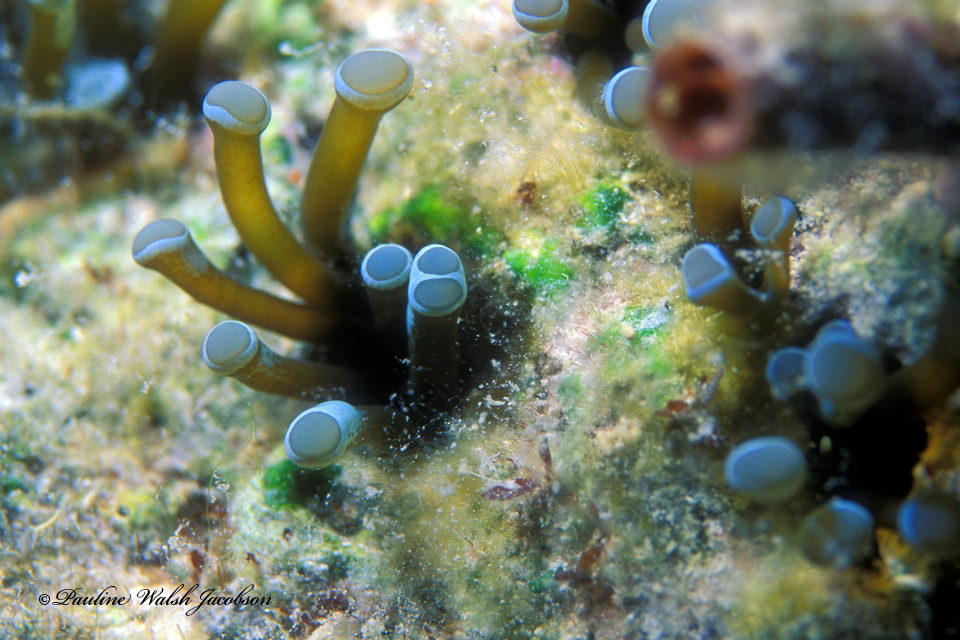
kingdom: Animalia
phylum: Cnidaria
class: Anthozoa
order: Actiniaria
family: Aliciidae
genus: Lebrunia
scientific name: Lebrunia coralligens
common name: Hidden anemone
